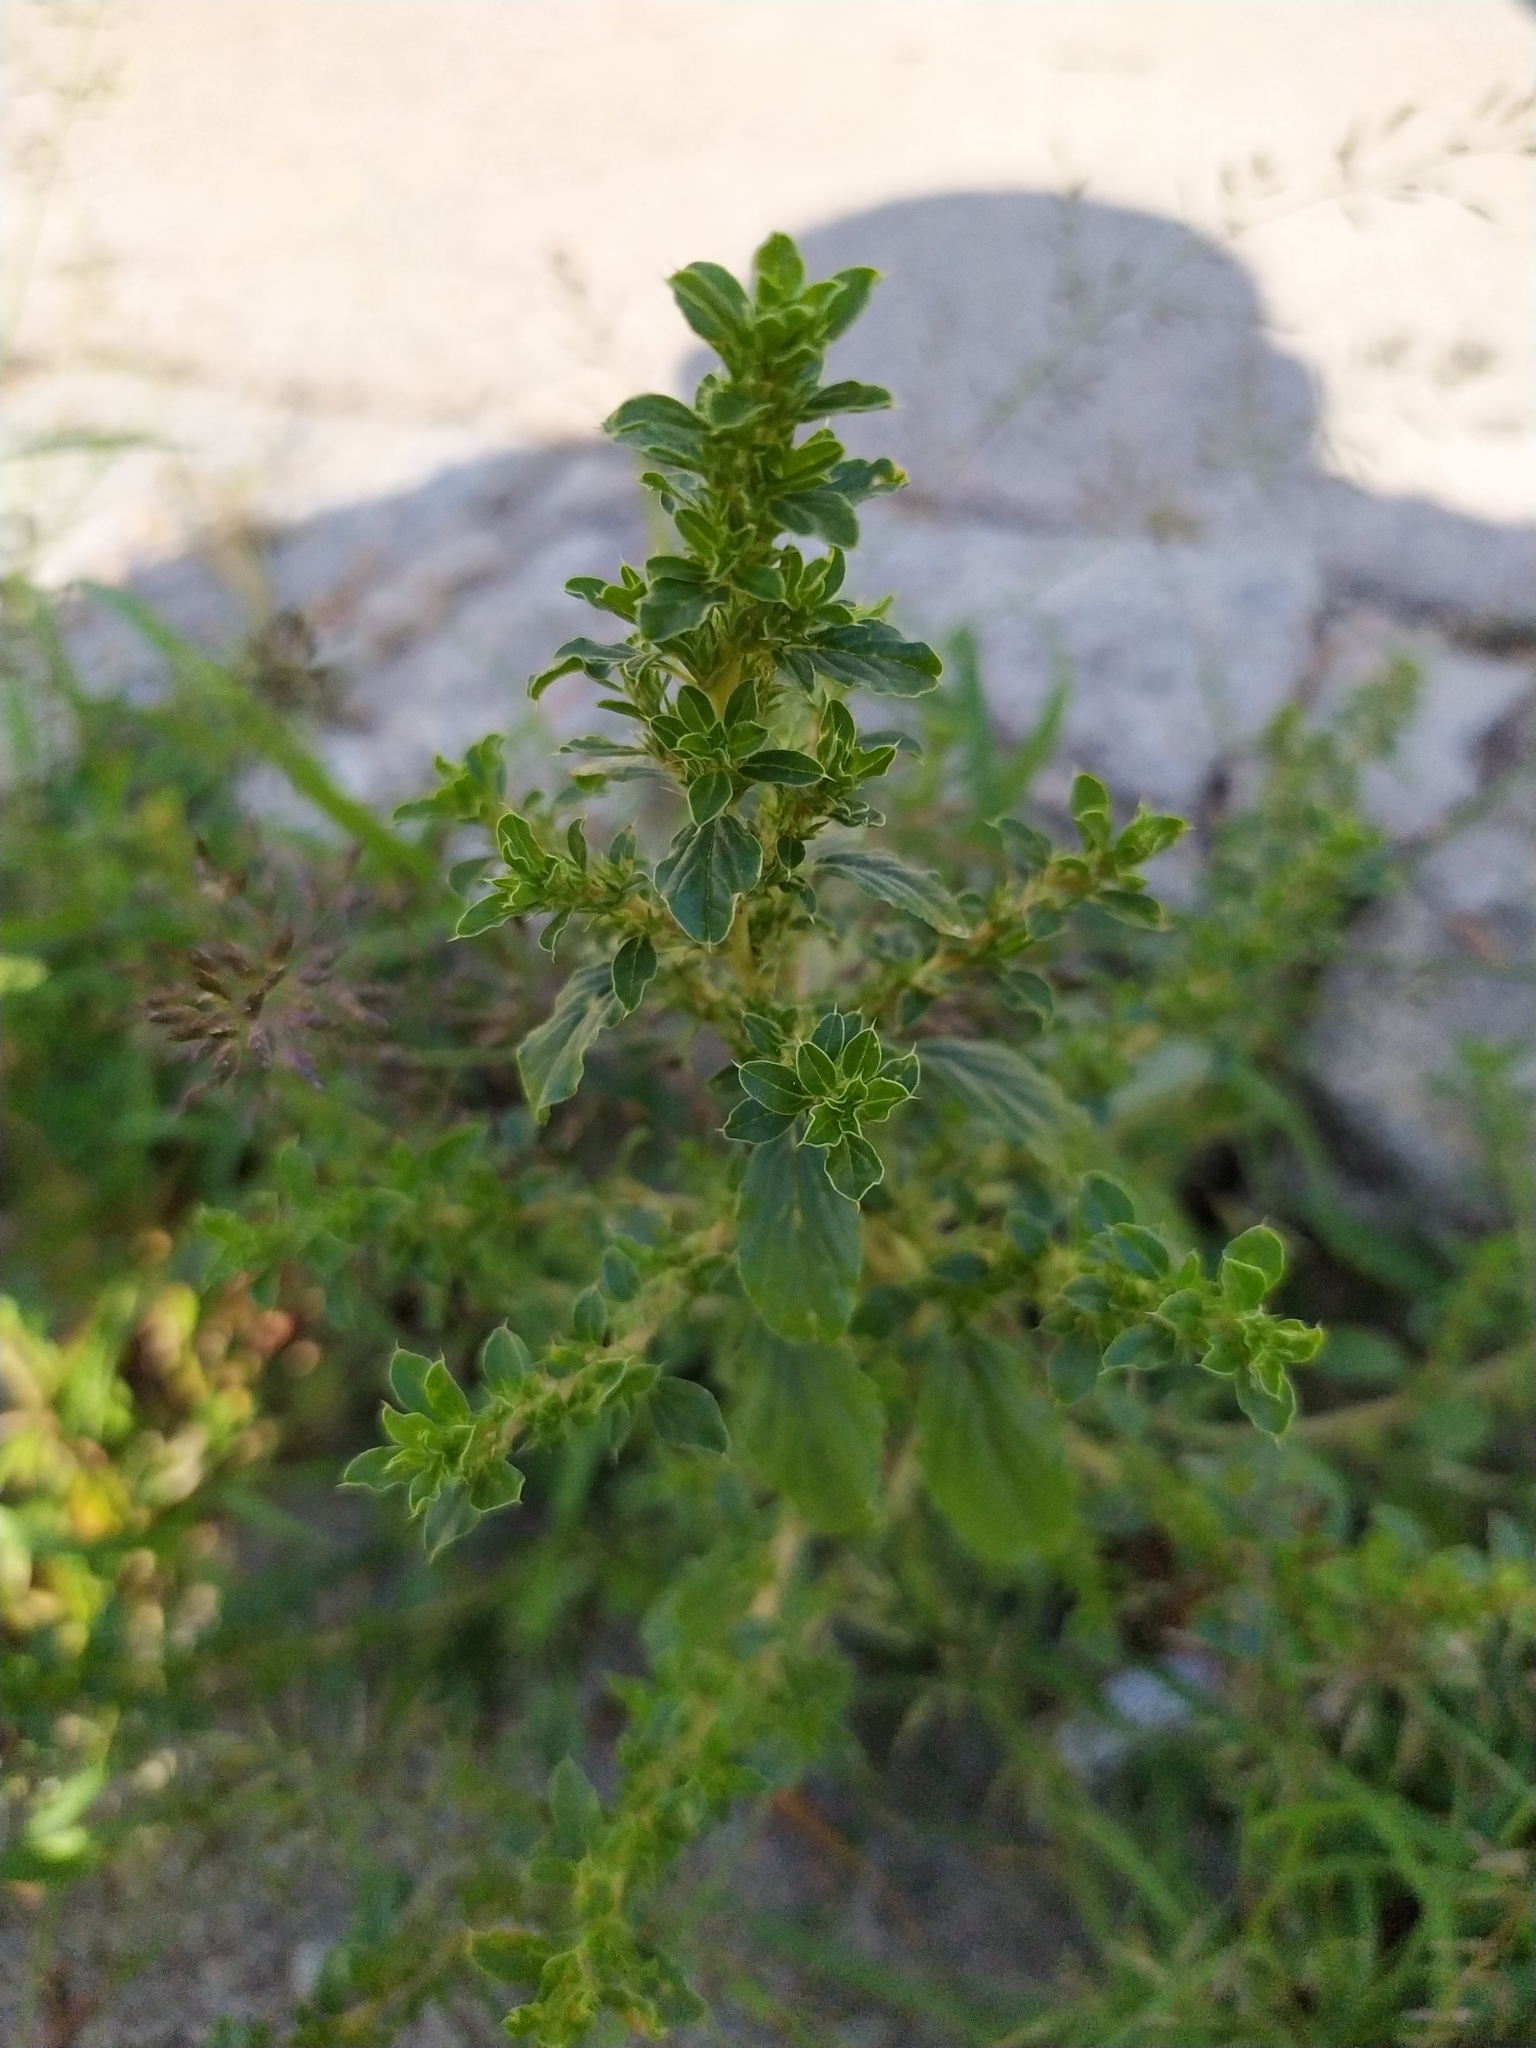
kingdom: Plantae
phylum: Tracheophyta
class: Magnoliopsida
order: Caryophyllales
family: Amaranthaceae
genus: Amaranthus
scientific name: Amaranthus albus
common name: White pigweed
